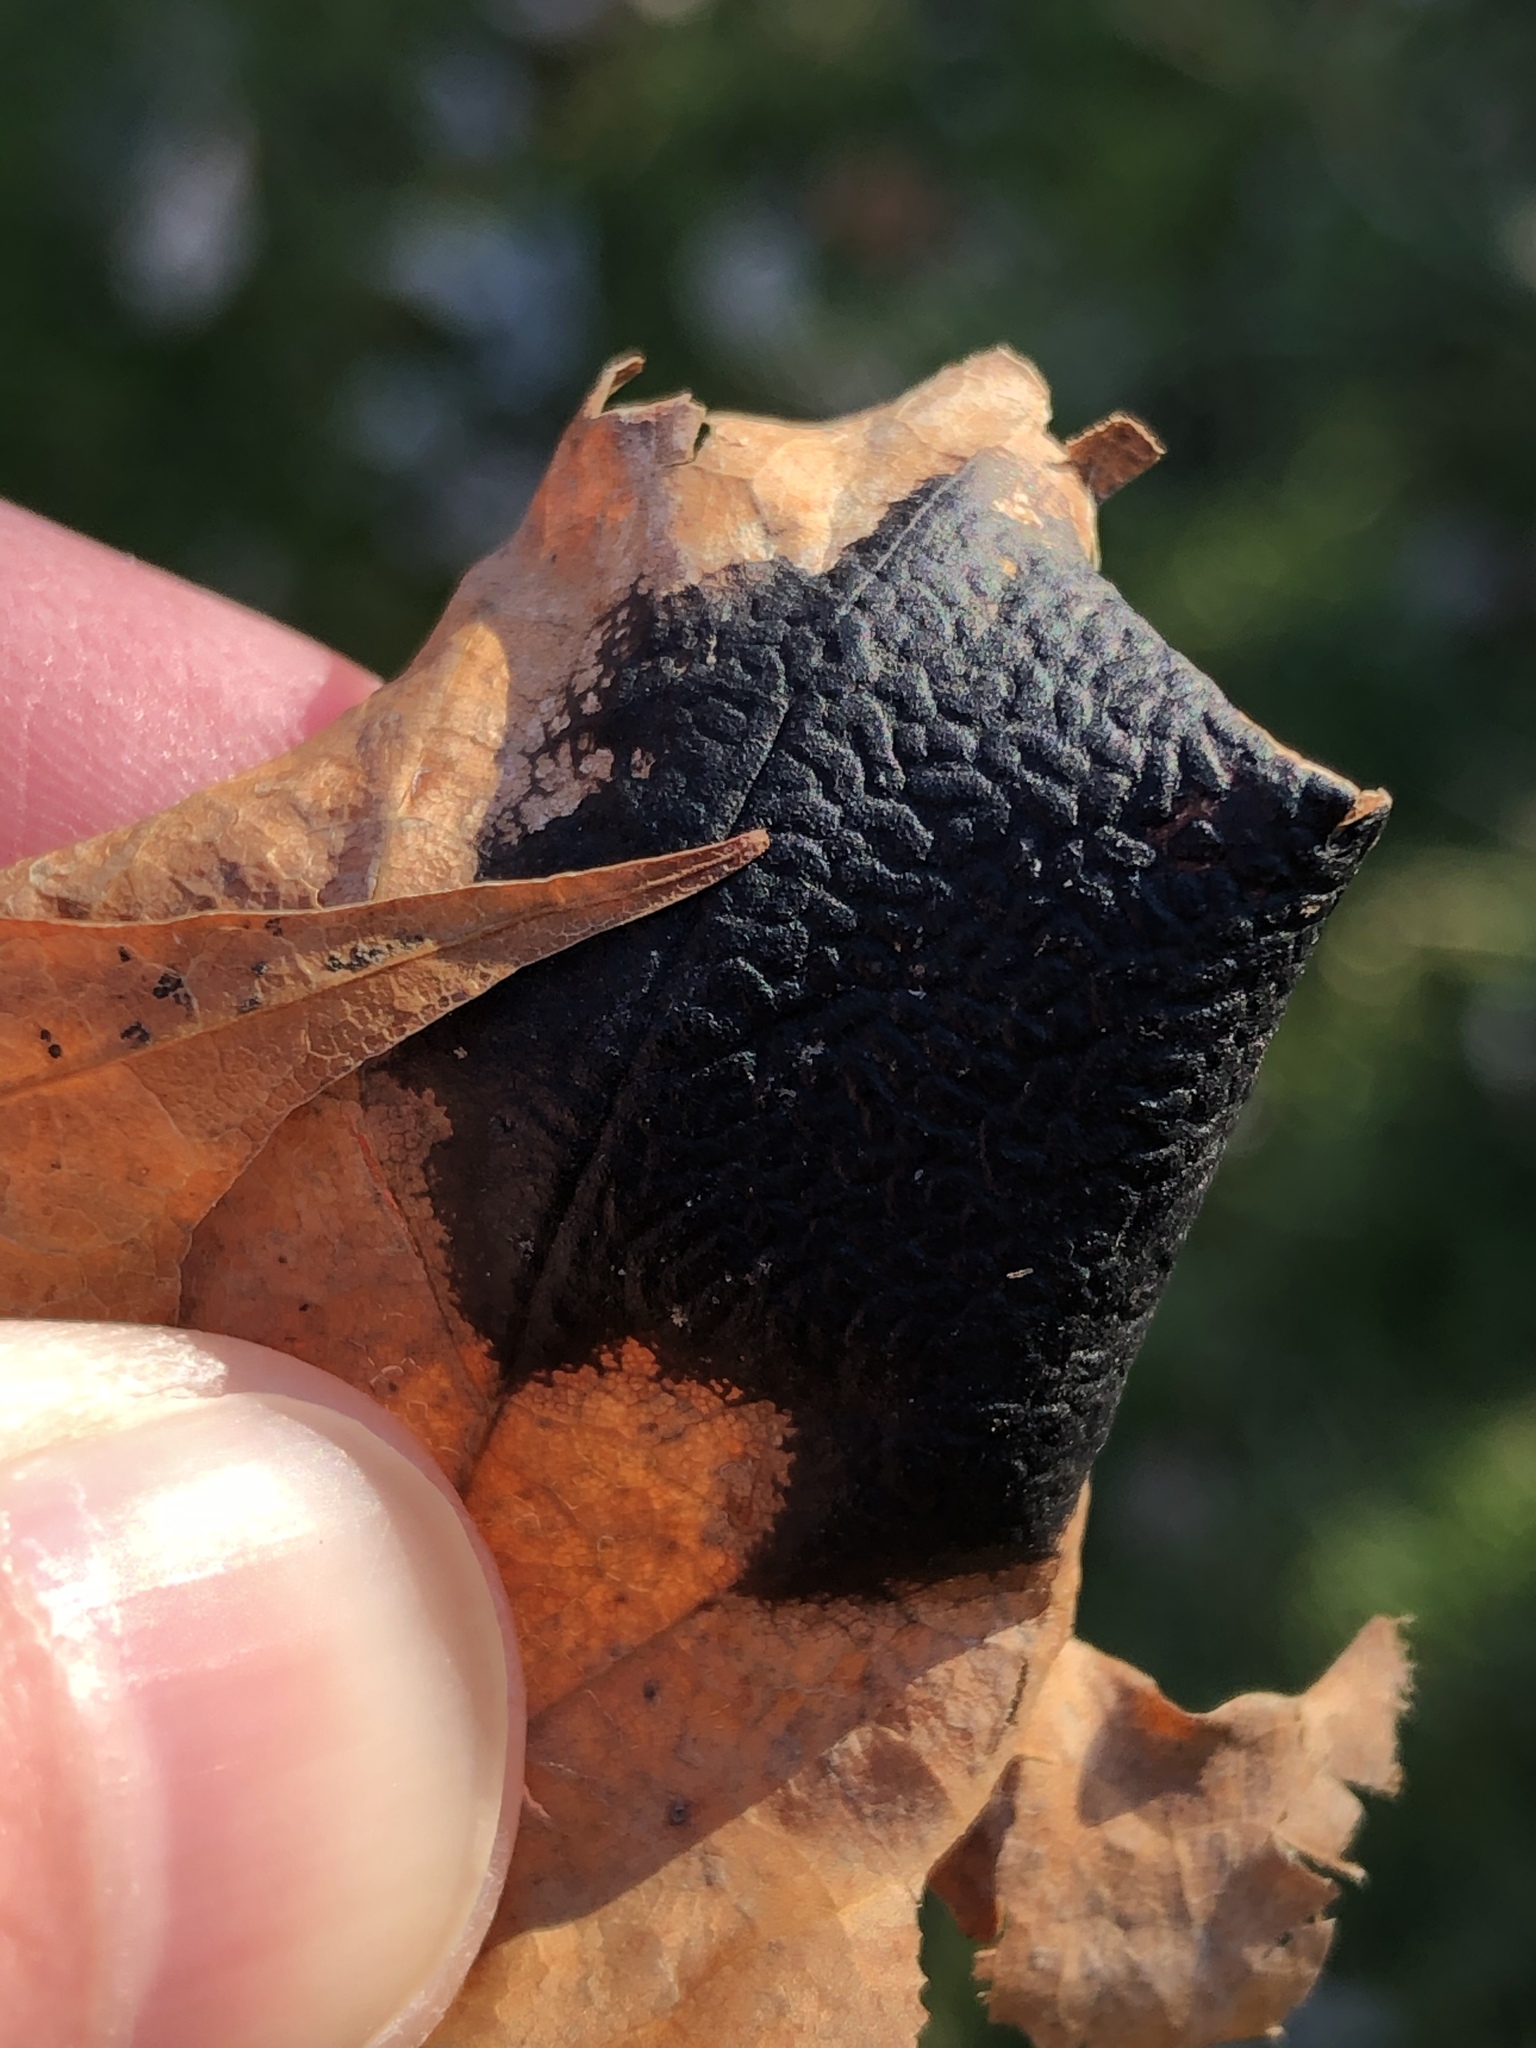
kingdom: Fungi
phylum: Ascomycota
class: Leotiomycetes
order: Rhytismatales
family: Rhytismataceae
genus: Rhytisma
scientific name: Rhytisma acerinum
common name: European tar spot
